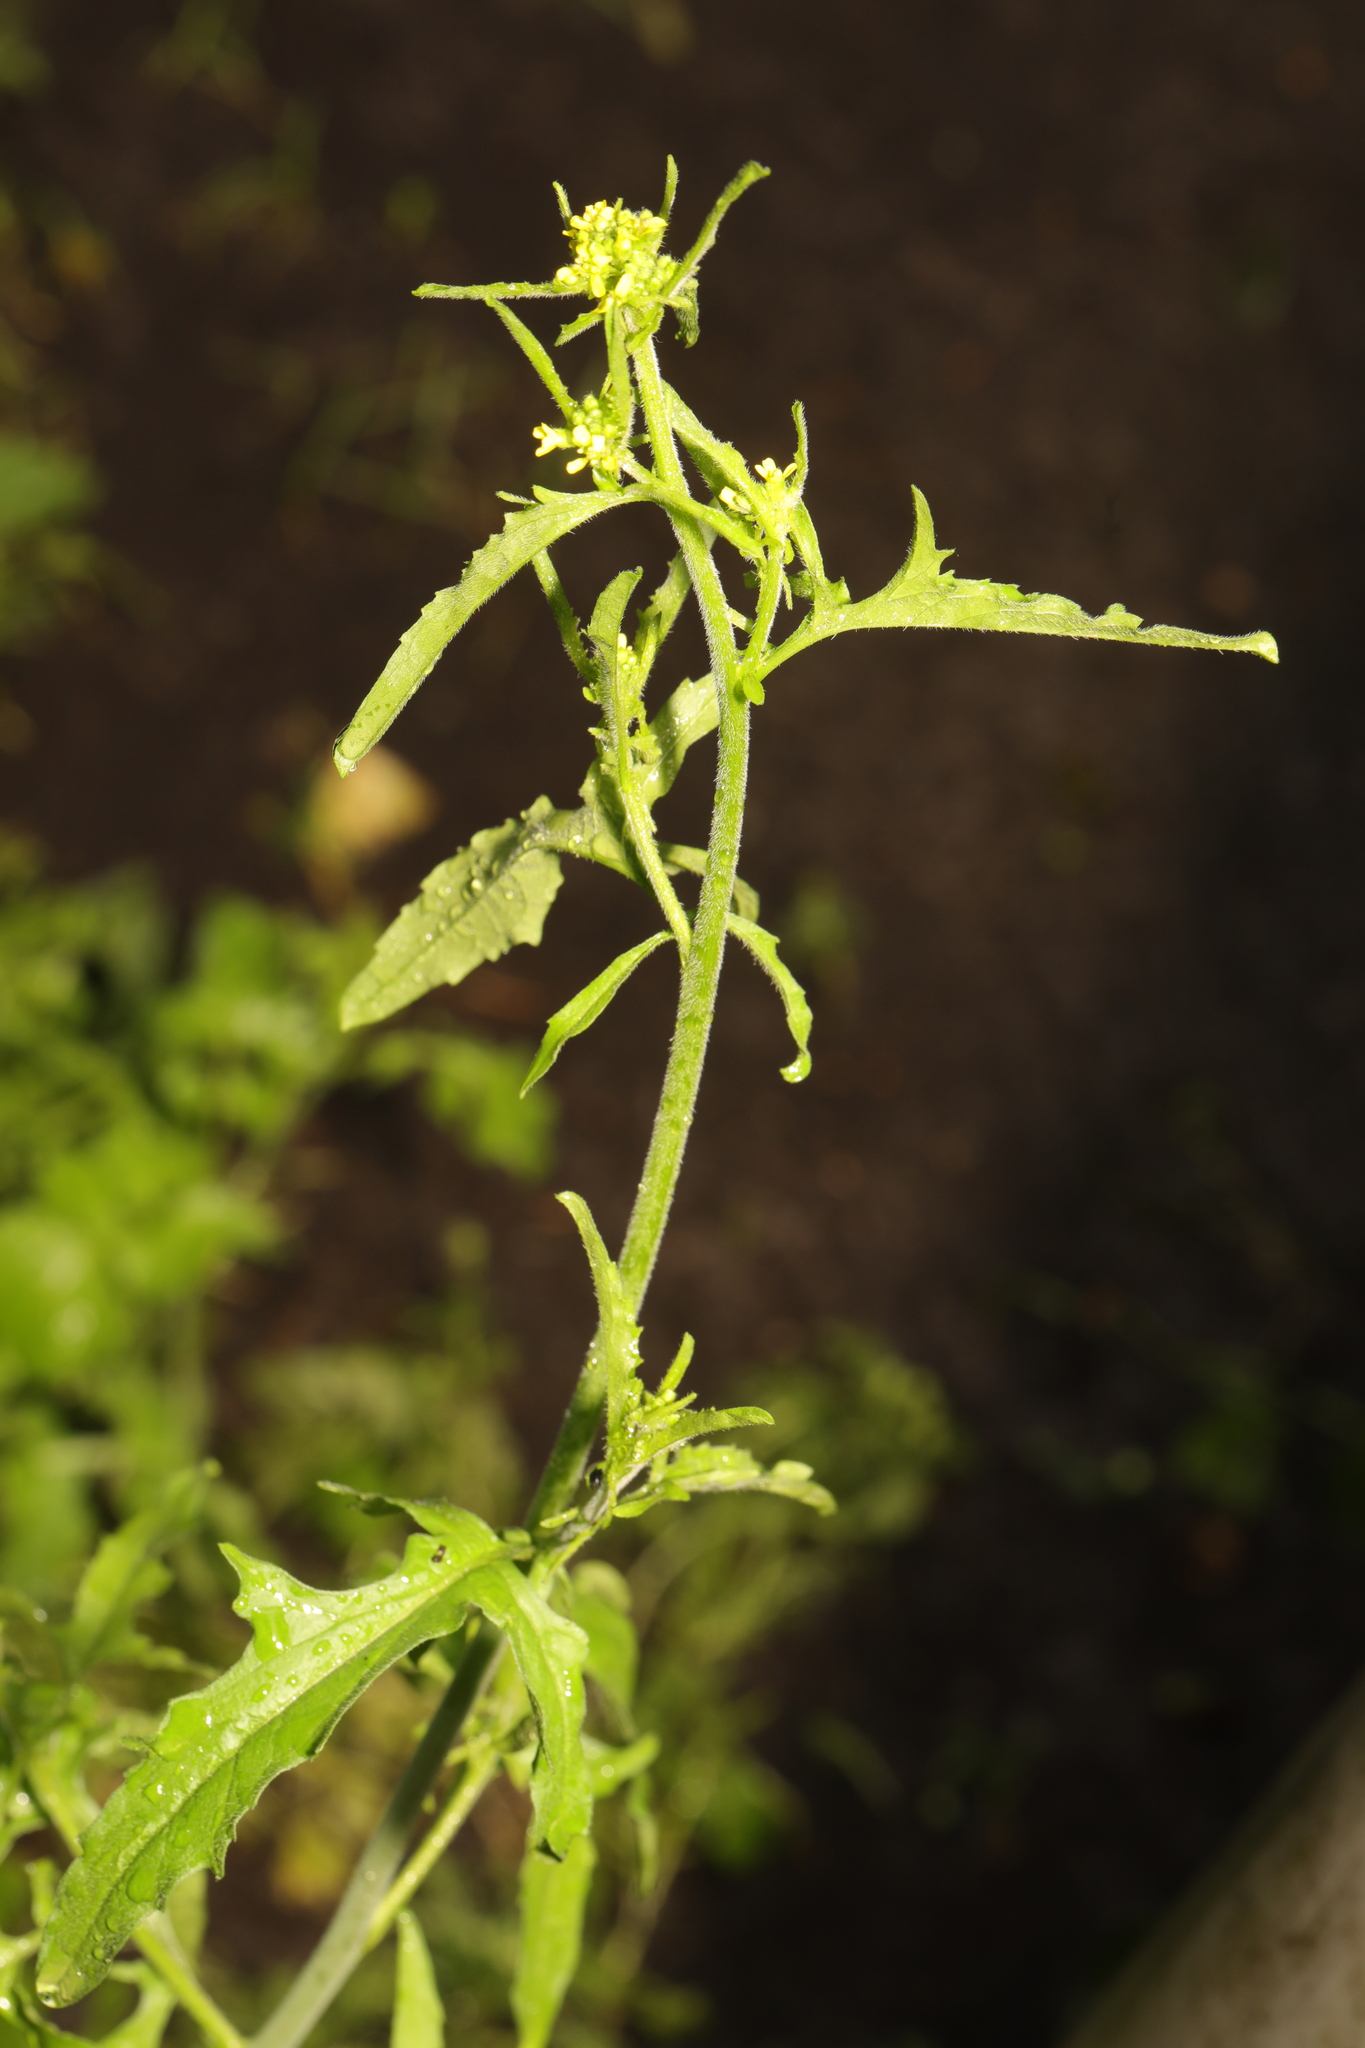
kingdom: Plantae
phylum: Tracheophyta
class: Magnoliopsida
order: Brassicales
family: Brassicaceae
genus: Sisymbrium
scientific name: Sisymbrium officinale
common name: Hedge mustard
